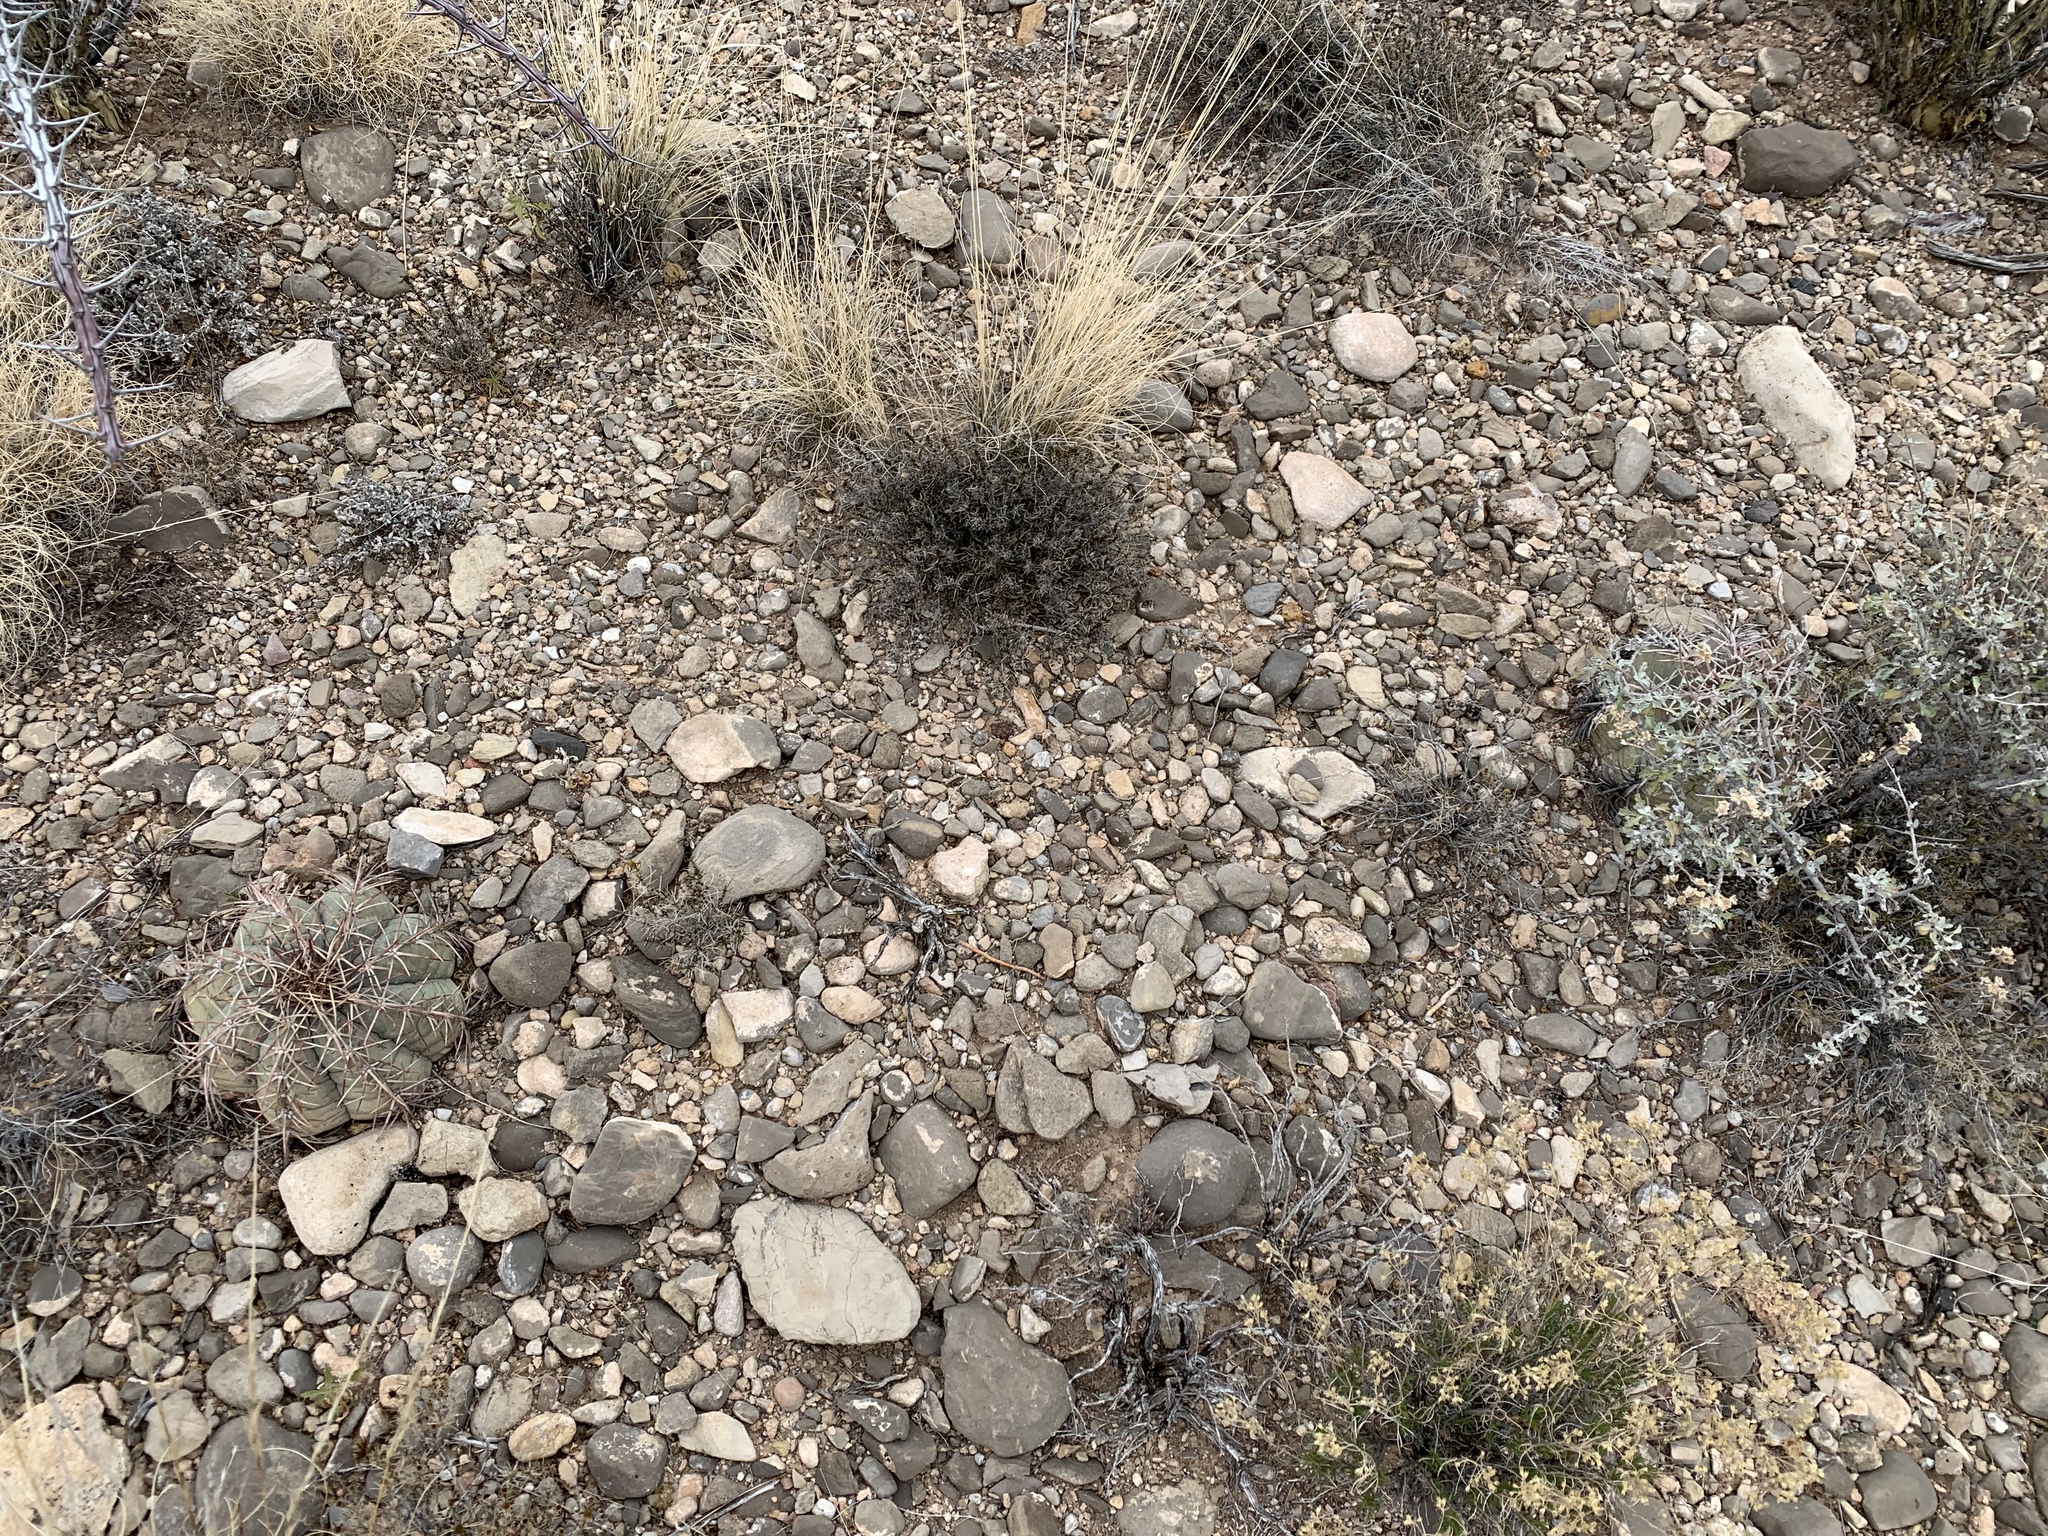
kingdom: Plantae
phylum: Tracheophyta
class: Magnoliopsida
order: Caryophyllales
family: Cactaceae
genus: Echinocactus
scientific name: Echinocactus horizonthalonius
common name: Devilshead
